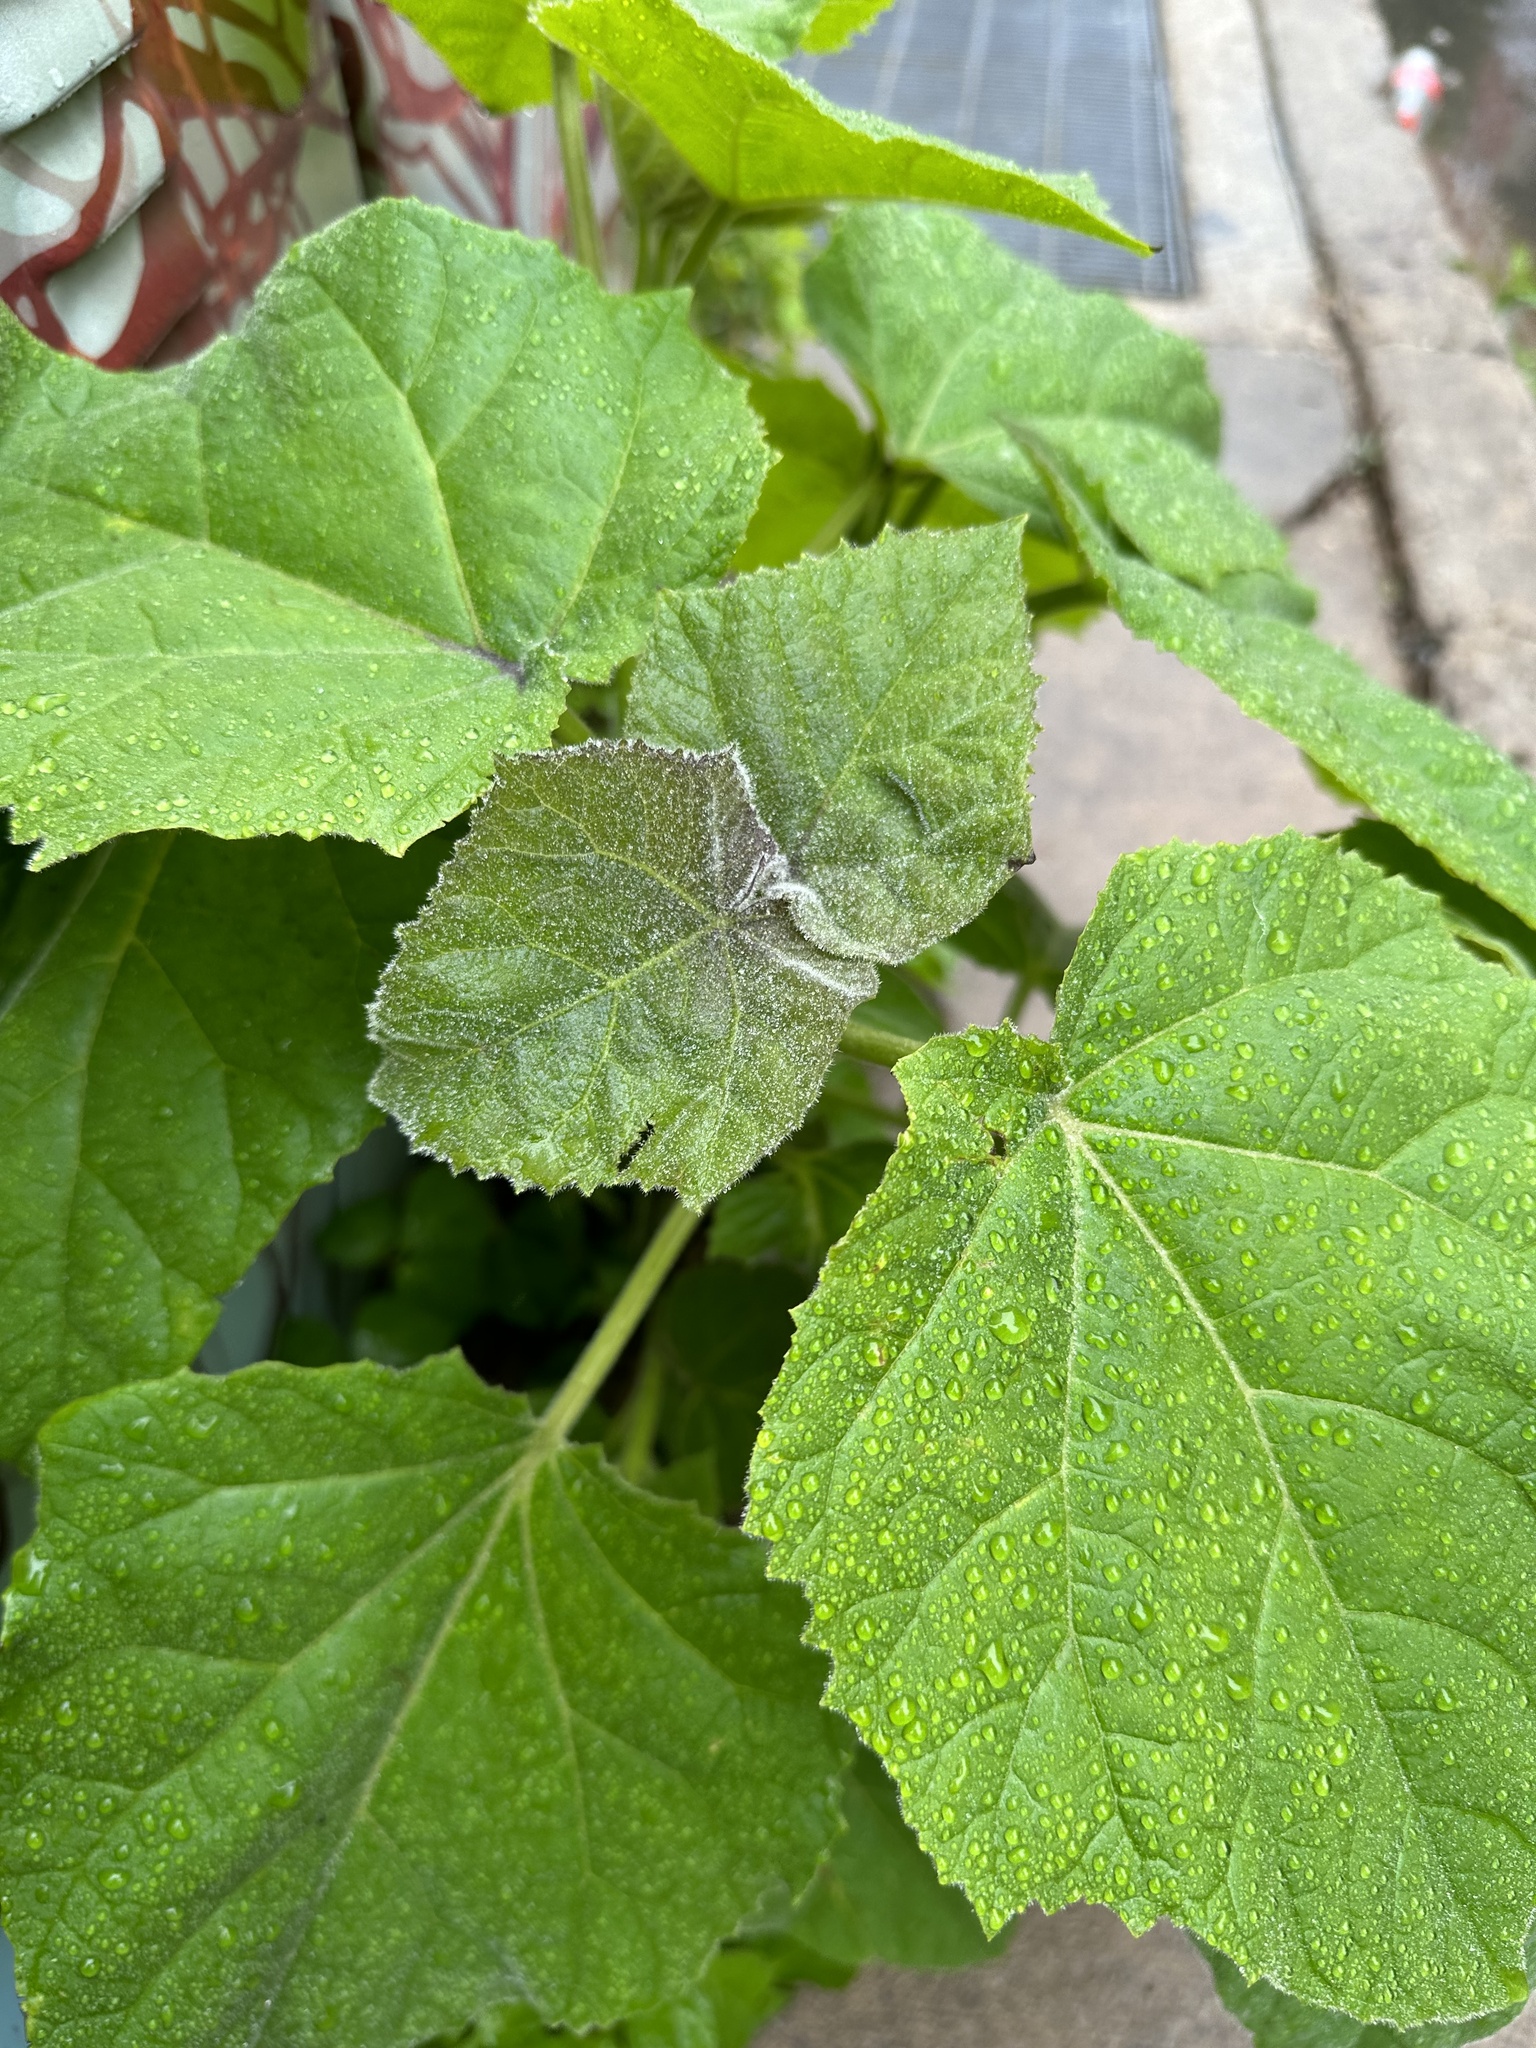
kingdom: Plantae
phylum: Tracheophyta
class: Magnoliopsida
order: Lamiales
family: Paulowniaceae
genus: Paulownia
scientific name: Paulownia tomentosa
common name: Foxglove-tree
